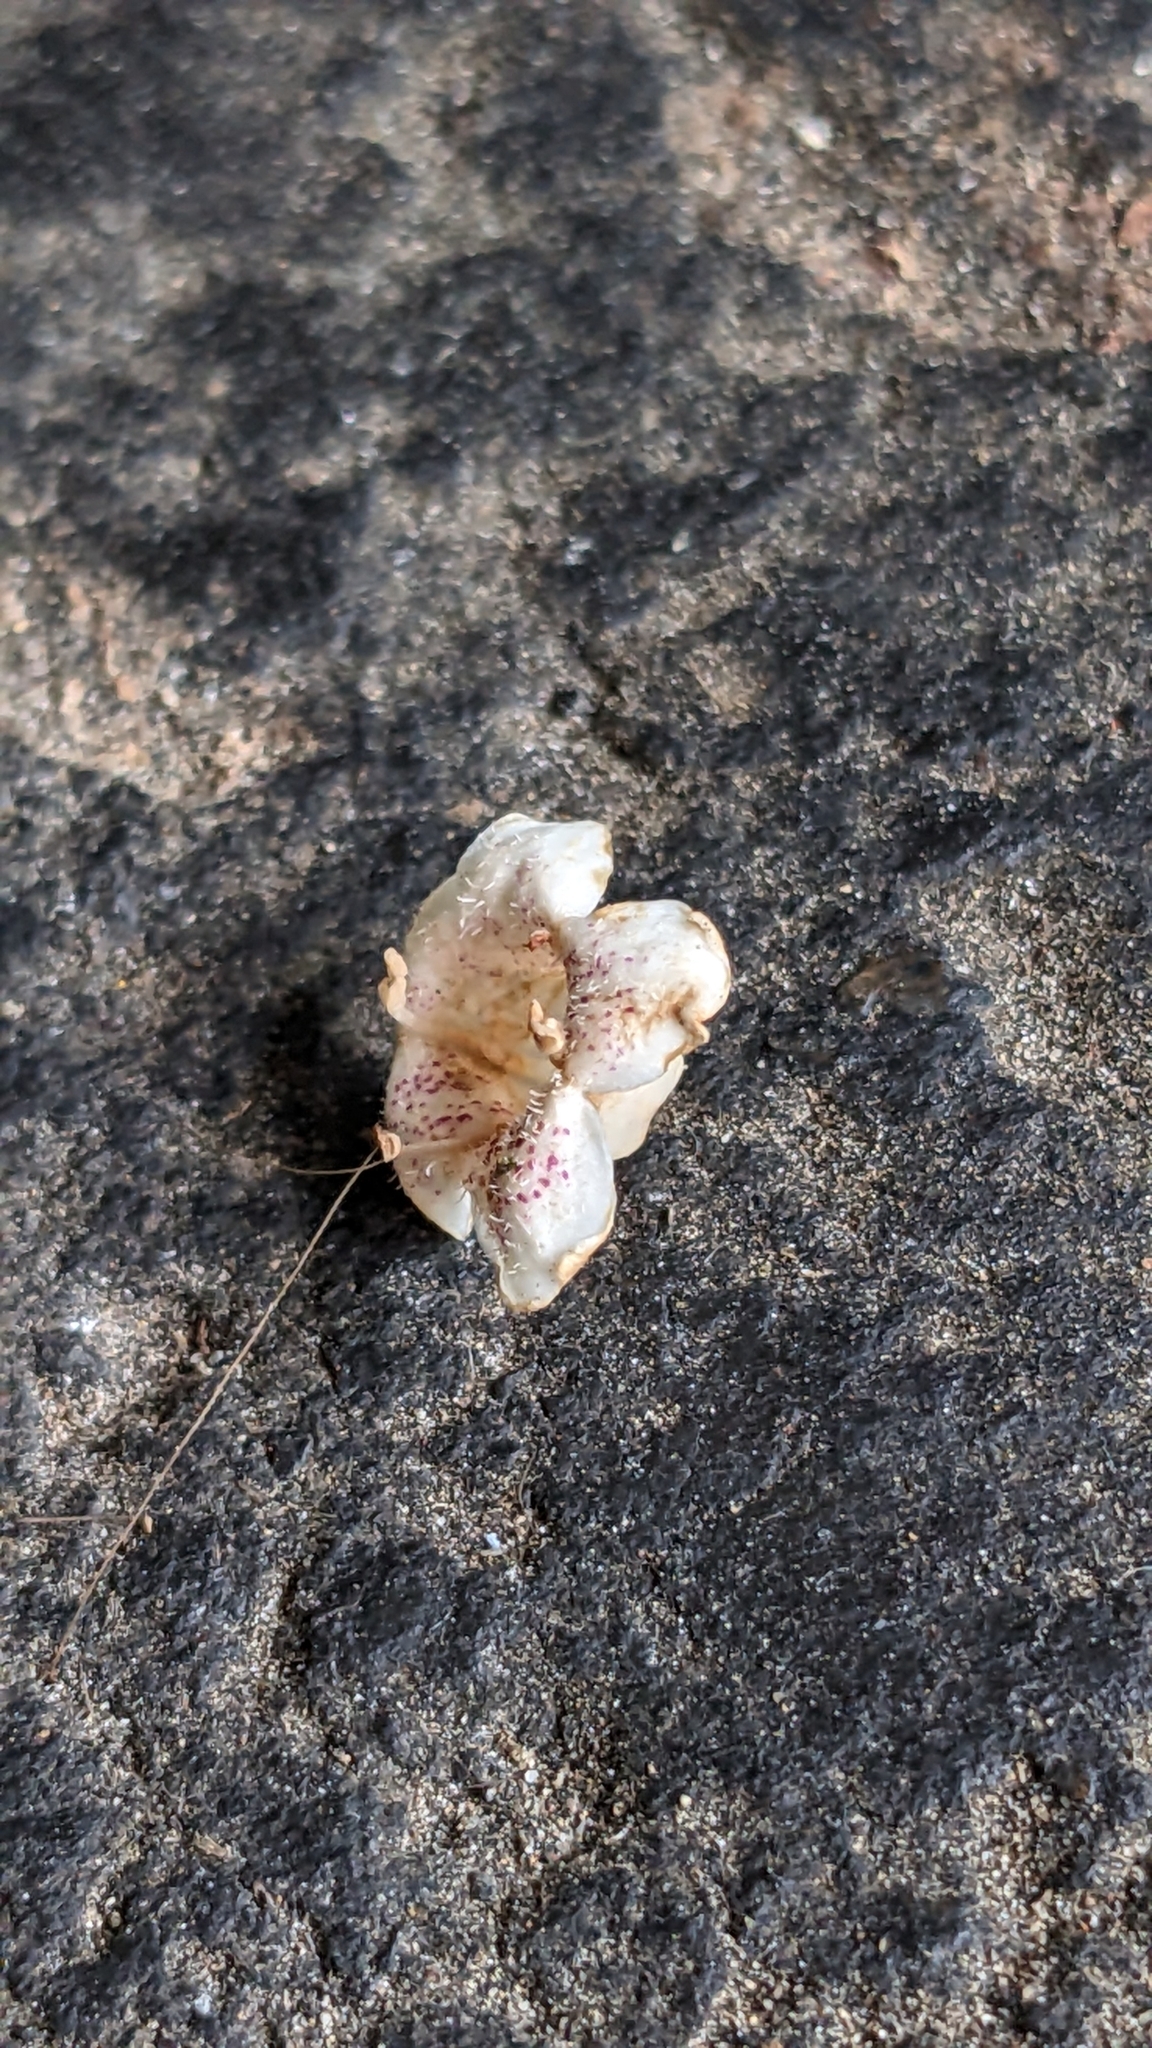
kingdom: Plantae
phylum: Tracheophyta
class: Magnoliopsida
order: Lamiales
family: Scrophulariaceae
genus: Myoporum
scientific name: Myoporum laetum
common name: Ngaio tree
